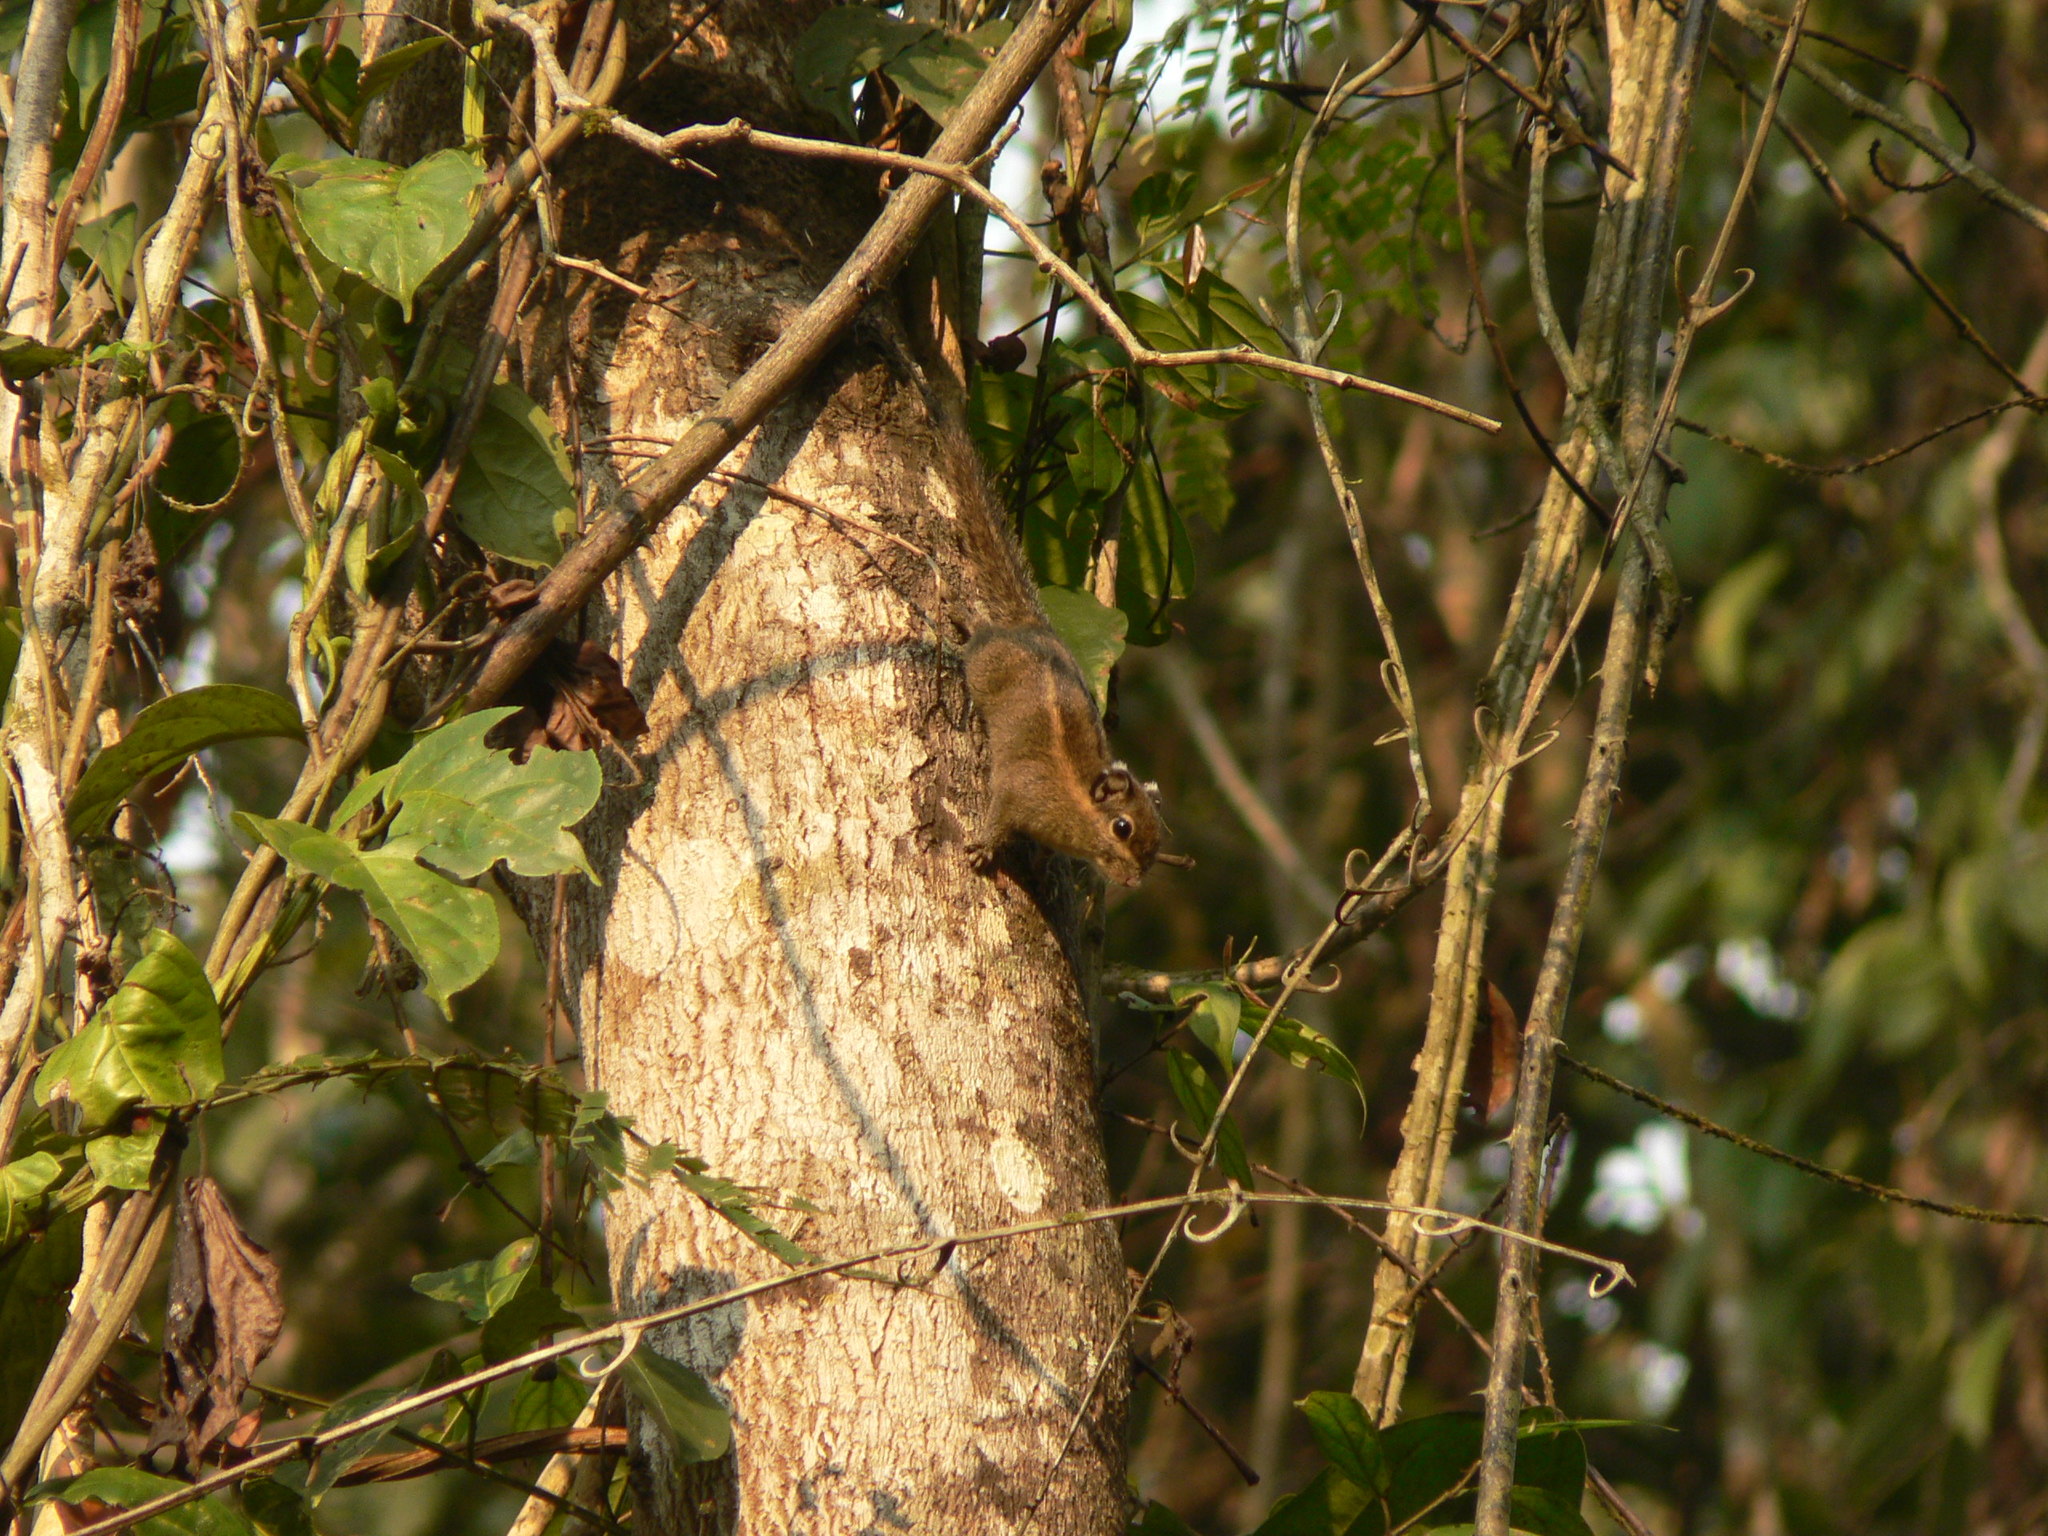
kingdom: Animalia
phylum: Chordata
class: Mammalia
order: Rodentia
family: Sciuridae
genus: Tamiops
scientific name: Tamiops mcclellandii
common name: Himalayan striped squirrel
